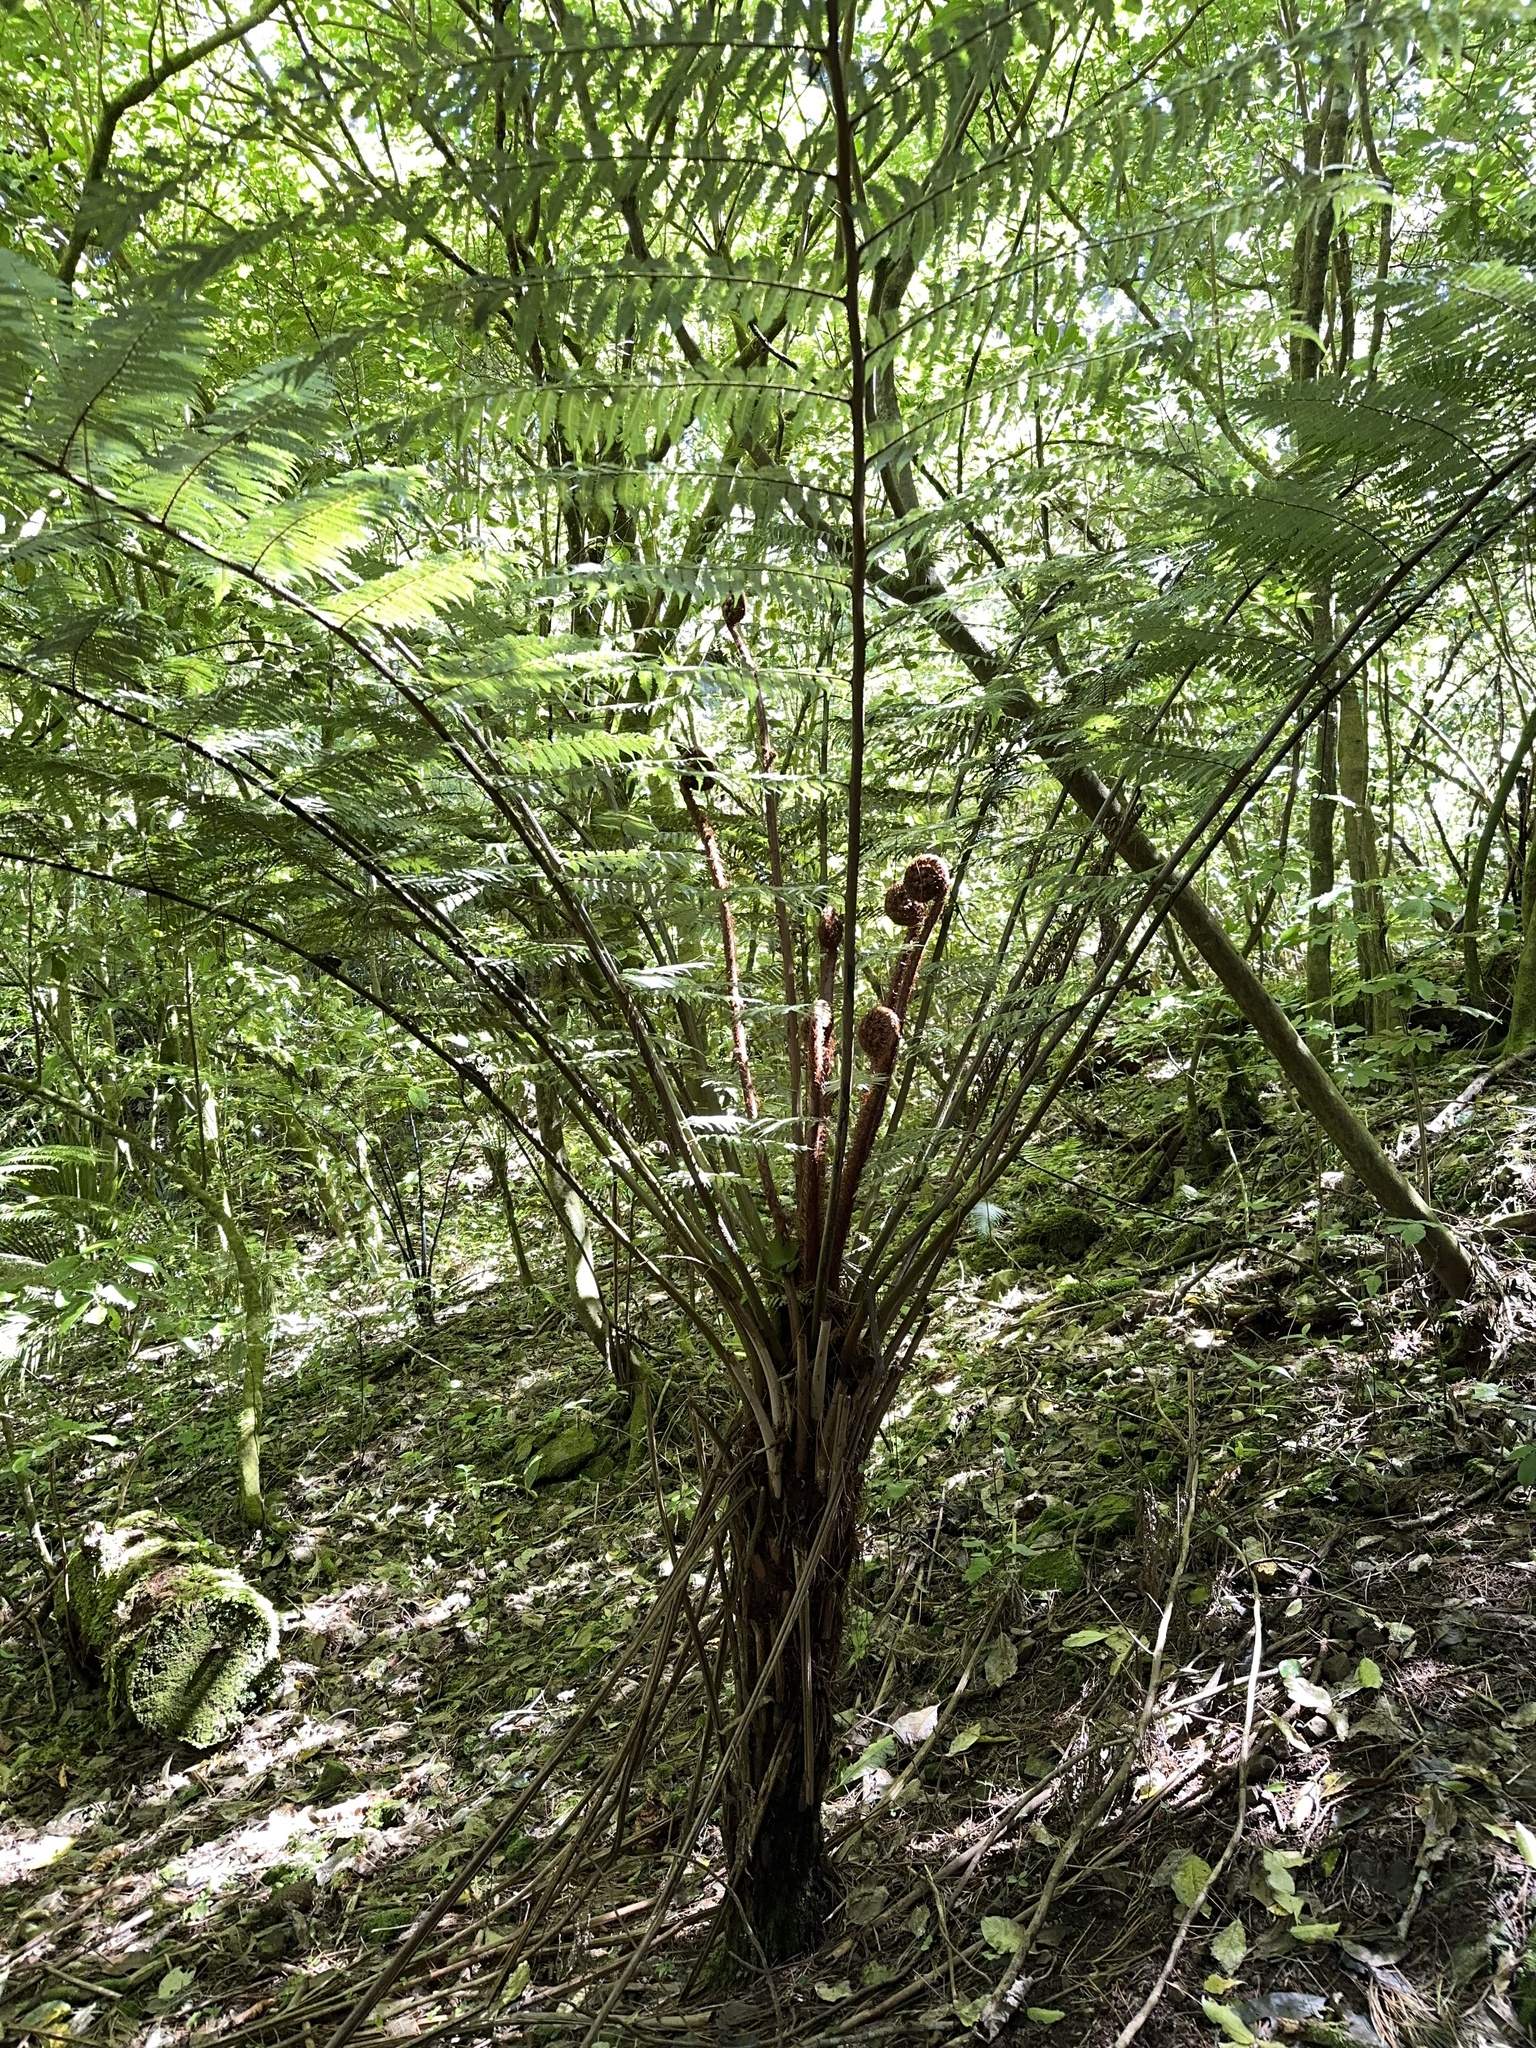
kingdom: Plantae
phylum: Tracheophyta
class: Polypodiopsida
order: Cyatheales
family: Cyatheaceae
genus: Alsophila
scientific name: Alsophila dealbata
